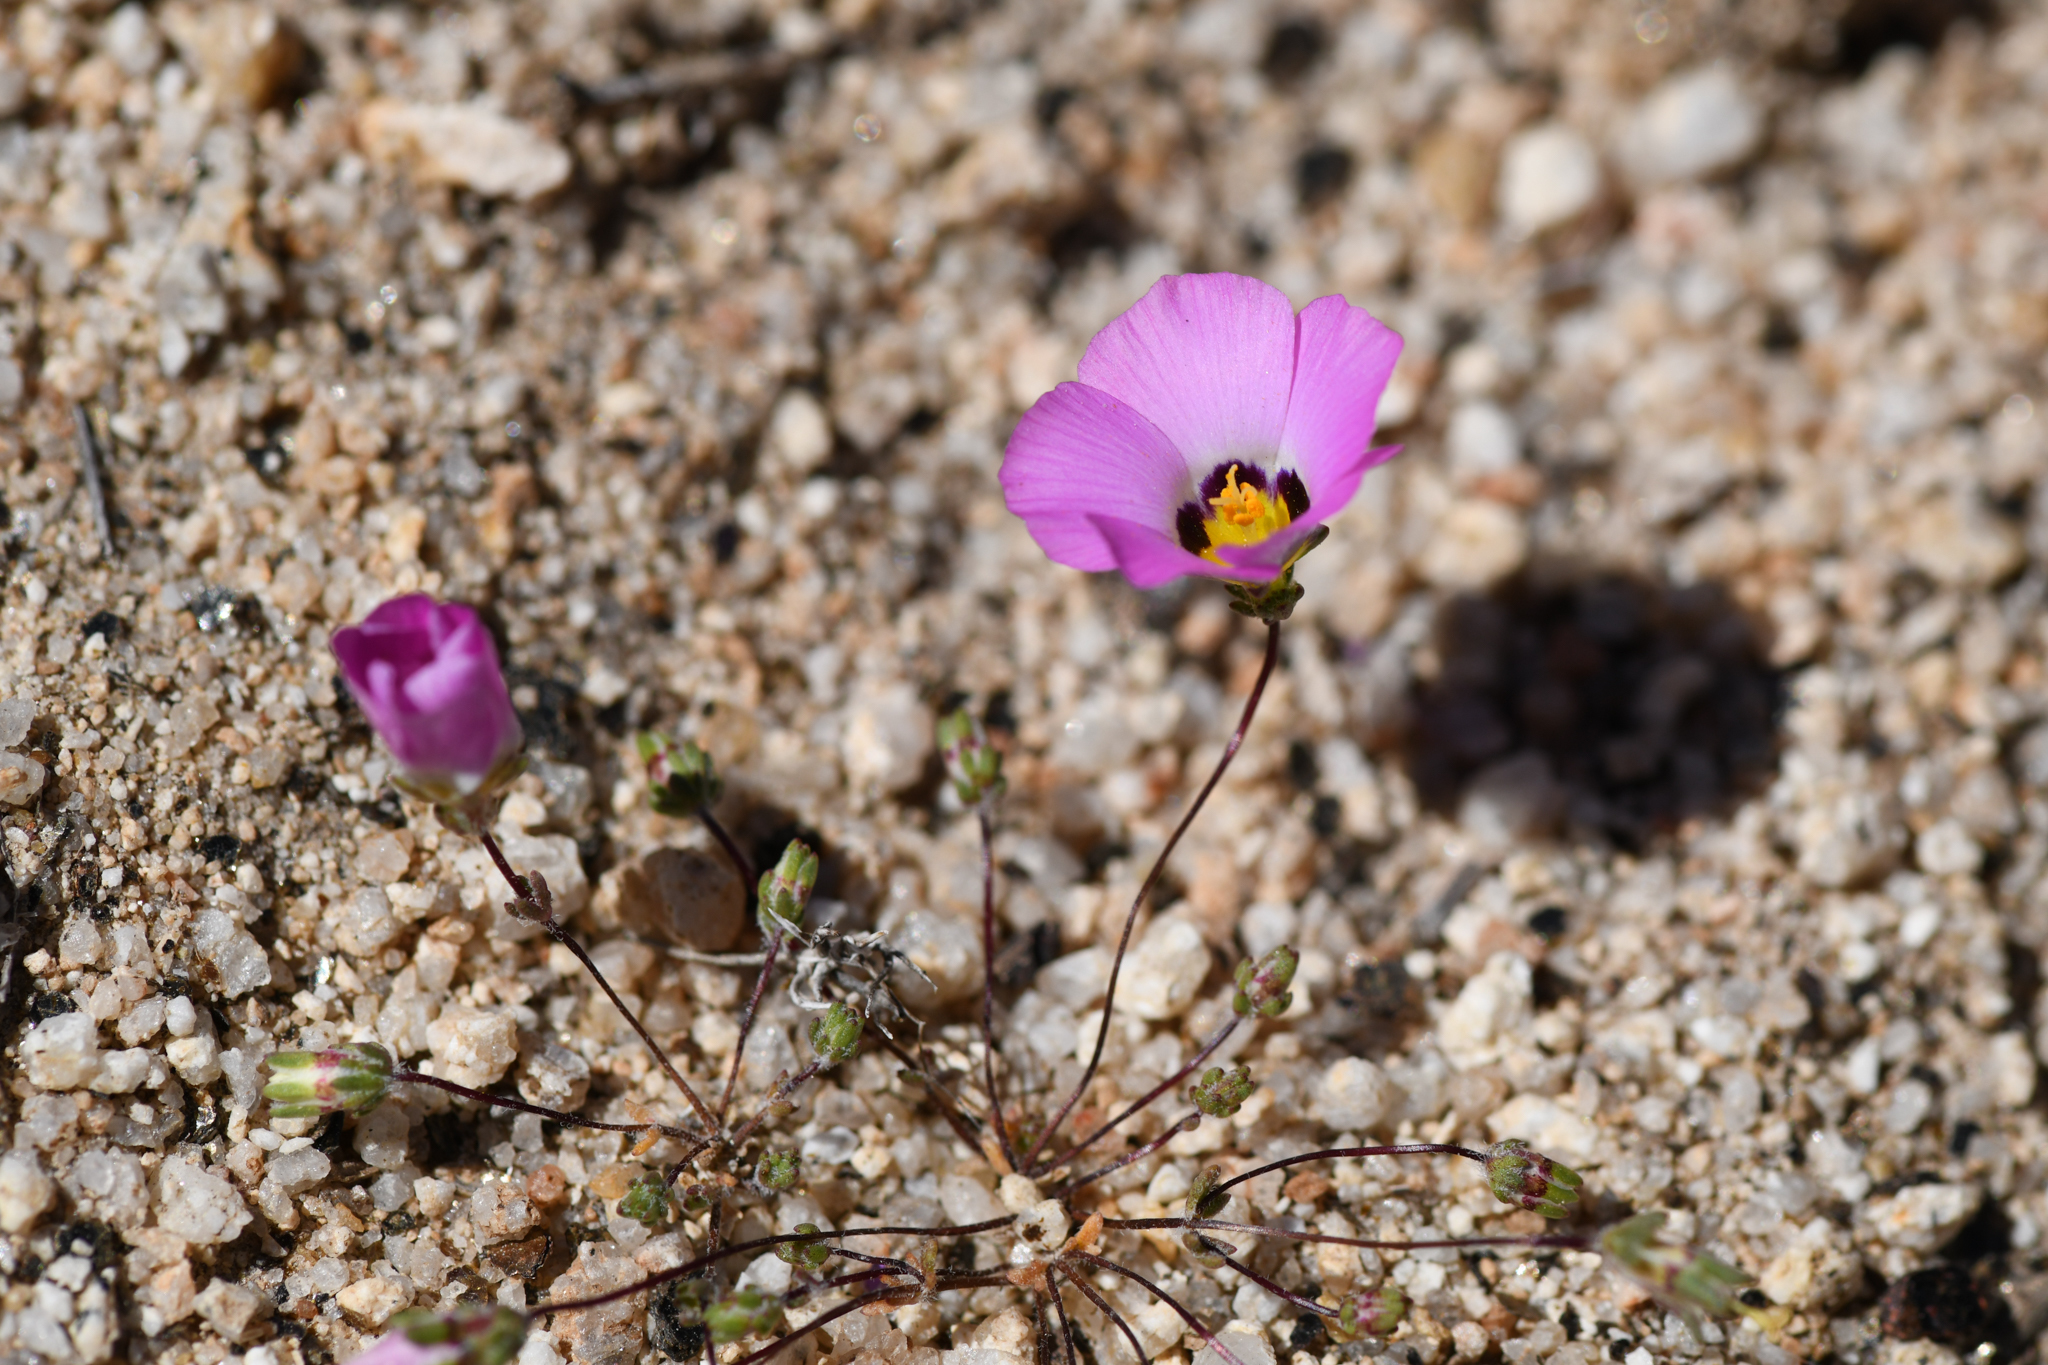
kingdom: Plantae
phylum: Tracheophyta
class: Magnoliopsida
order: Ericales
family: Polemoniaceae
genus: Linanthus
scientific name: Linanthus bellus
